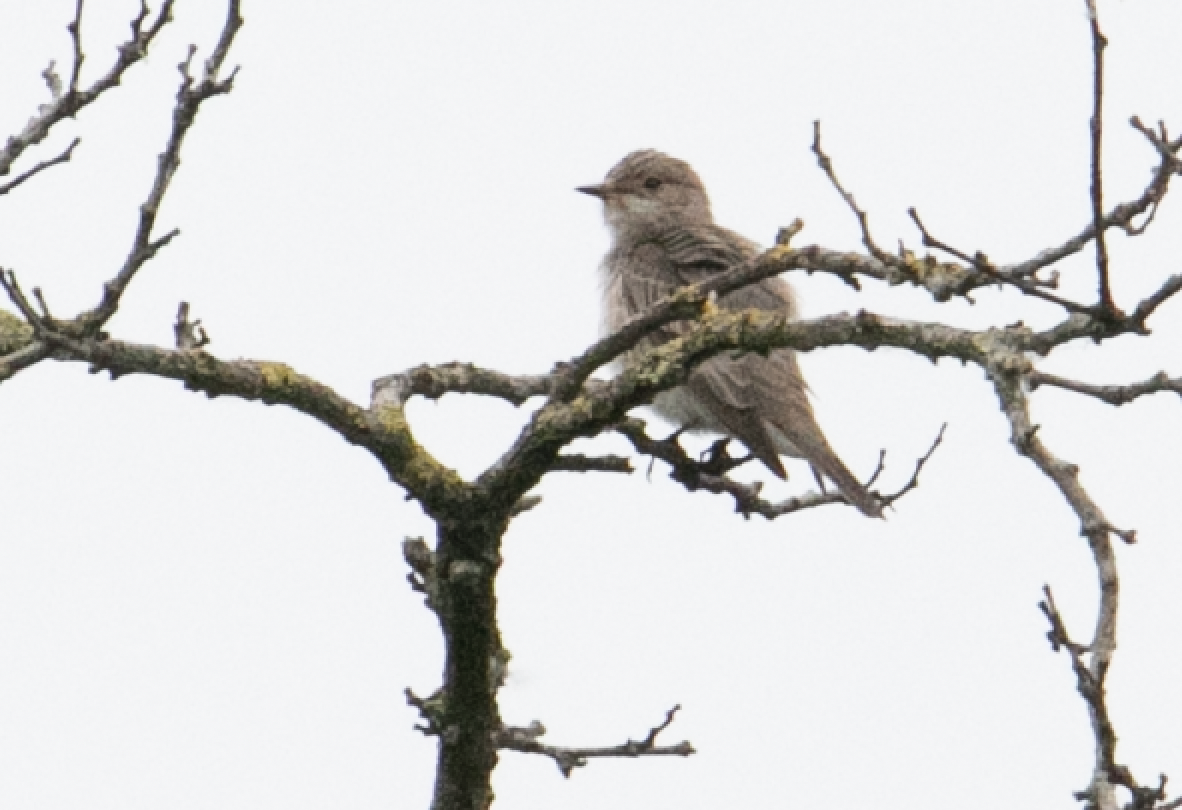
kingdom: Animalia
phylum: Chordata
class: Aves
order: Passeriformes
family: Muscicapidae
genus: Muscicapa
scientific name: Muscicapa striata
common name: Spotted flycatcher
